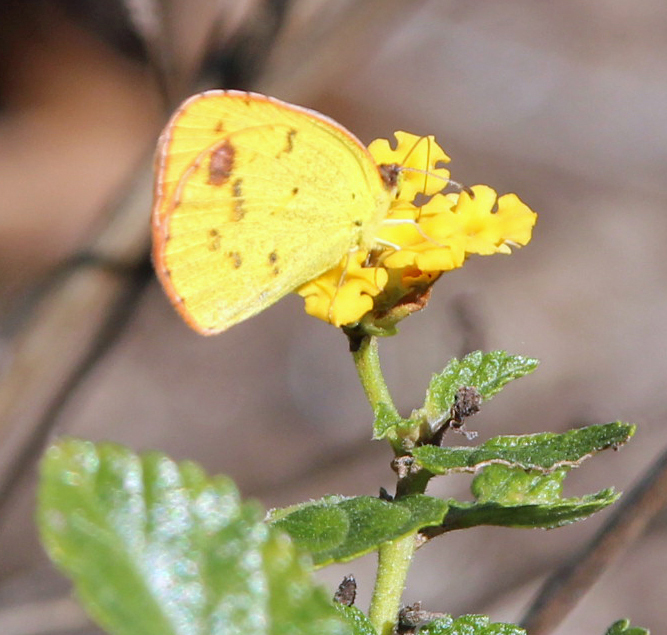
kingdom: Animalia
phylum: Arthropoda
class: Insecta
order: Lepidoptera
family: Pieridae
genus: Pyrisitia
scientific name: Pyrisitia lisa
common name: Little yellow
